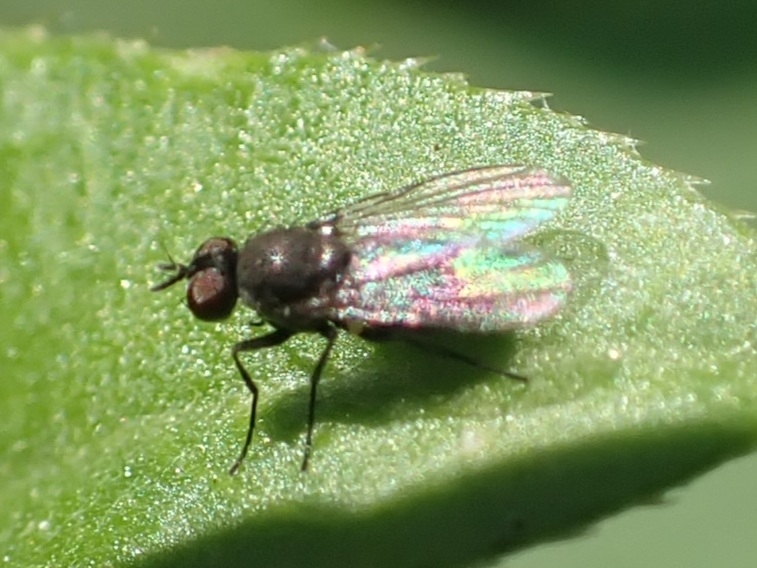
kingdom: Animalia
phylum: Arthropoda
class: Insecta
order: Diptera
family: Muscidae
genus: Coenosia
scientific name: Coenosia agromyzina
